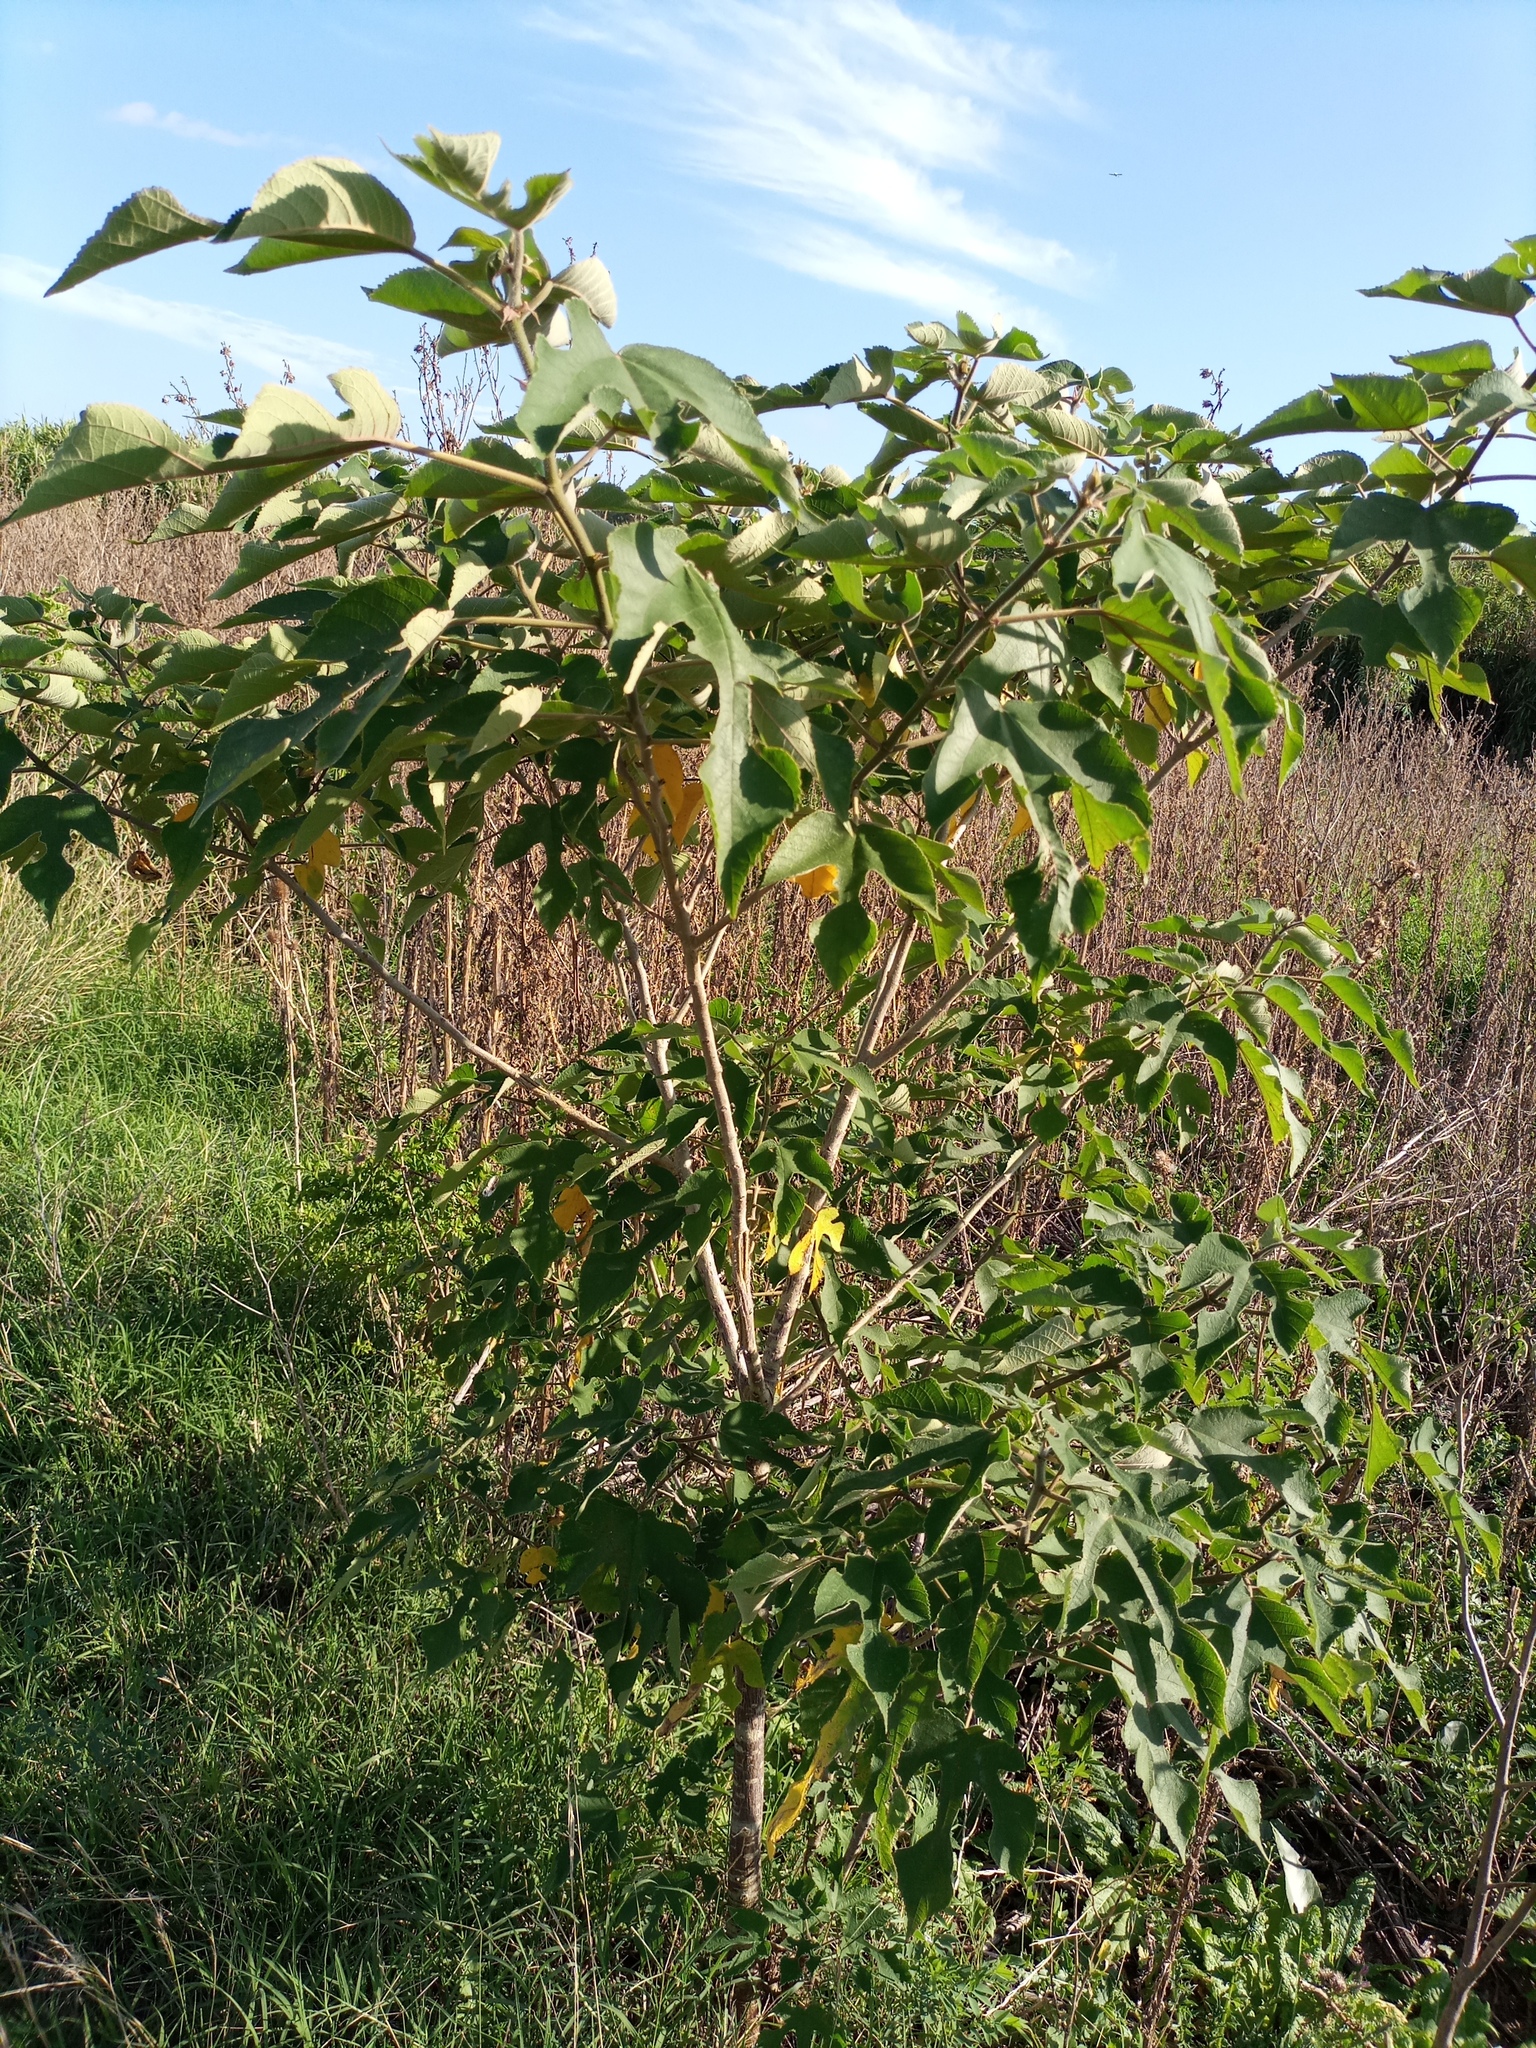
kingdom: Plantae
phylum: Tracheophyta
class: Magnoliopsida
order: Rosales
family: Moraceae
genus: Broussonetia
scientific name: Broussonetia papyrifera
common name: Paper mulberry
